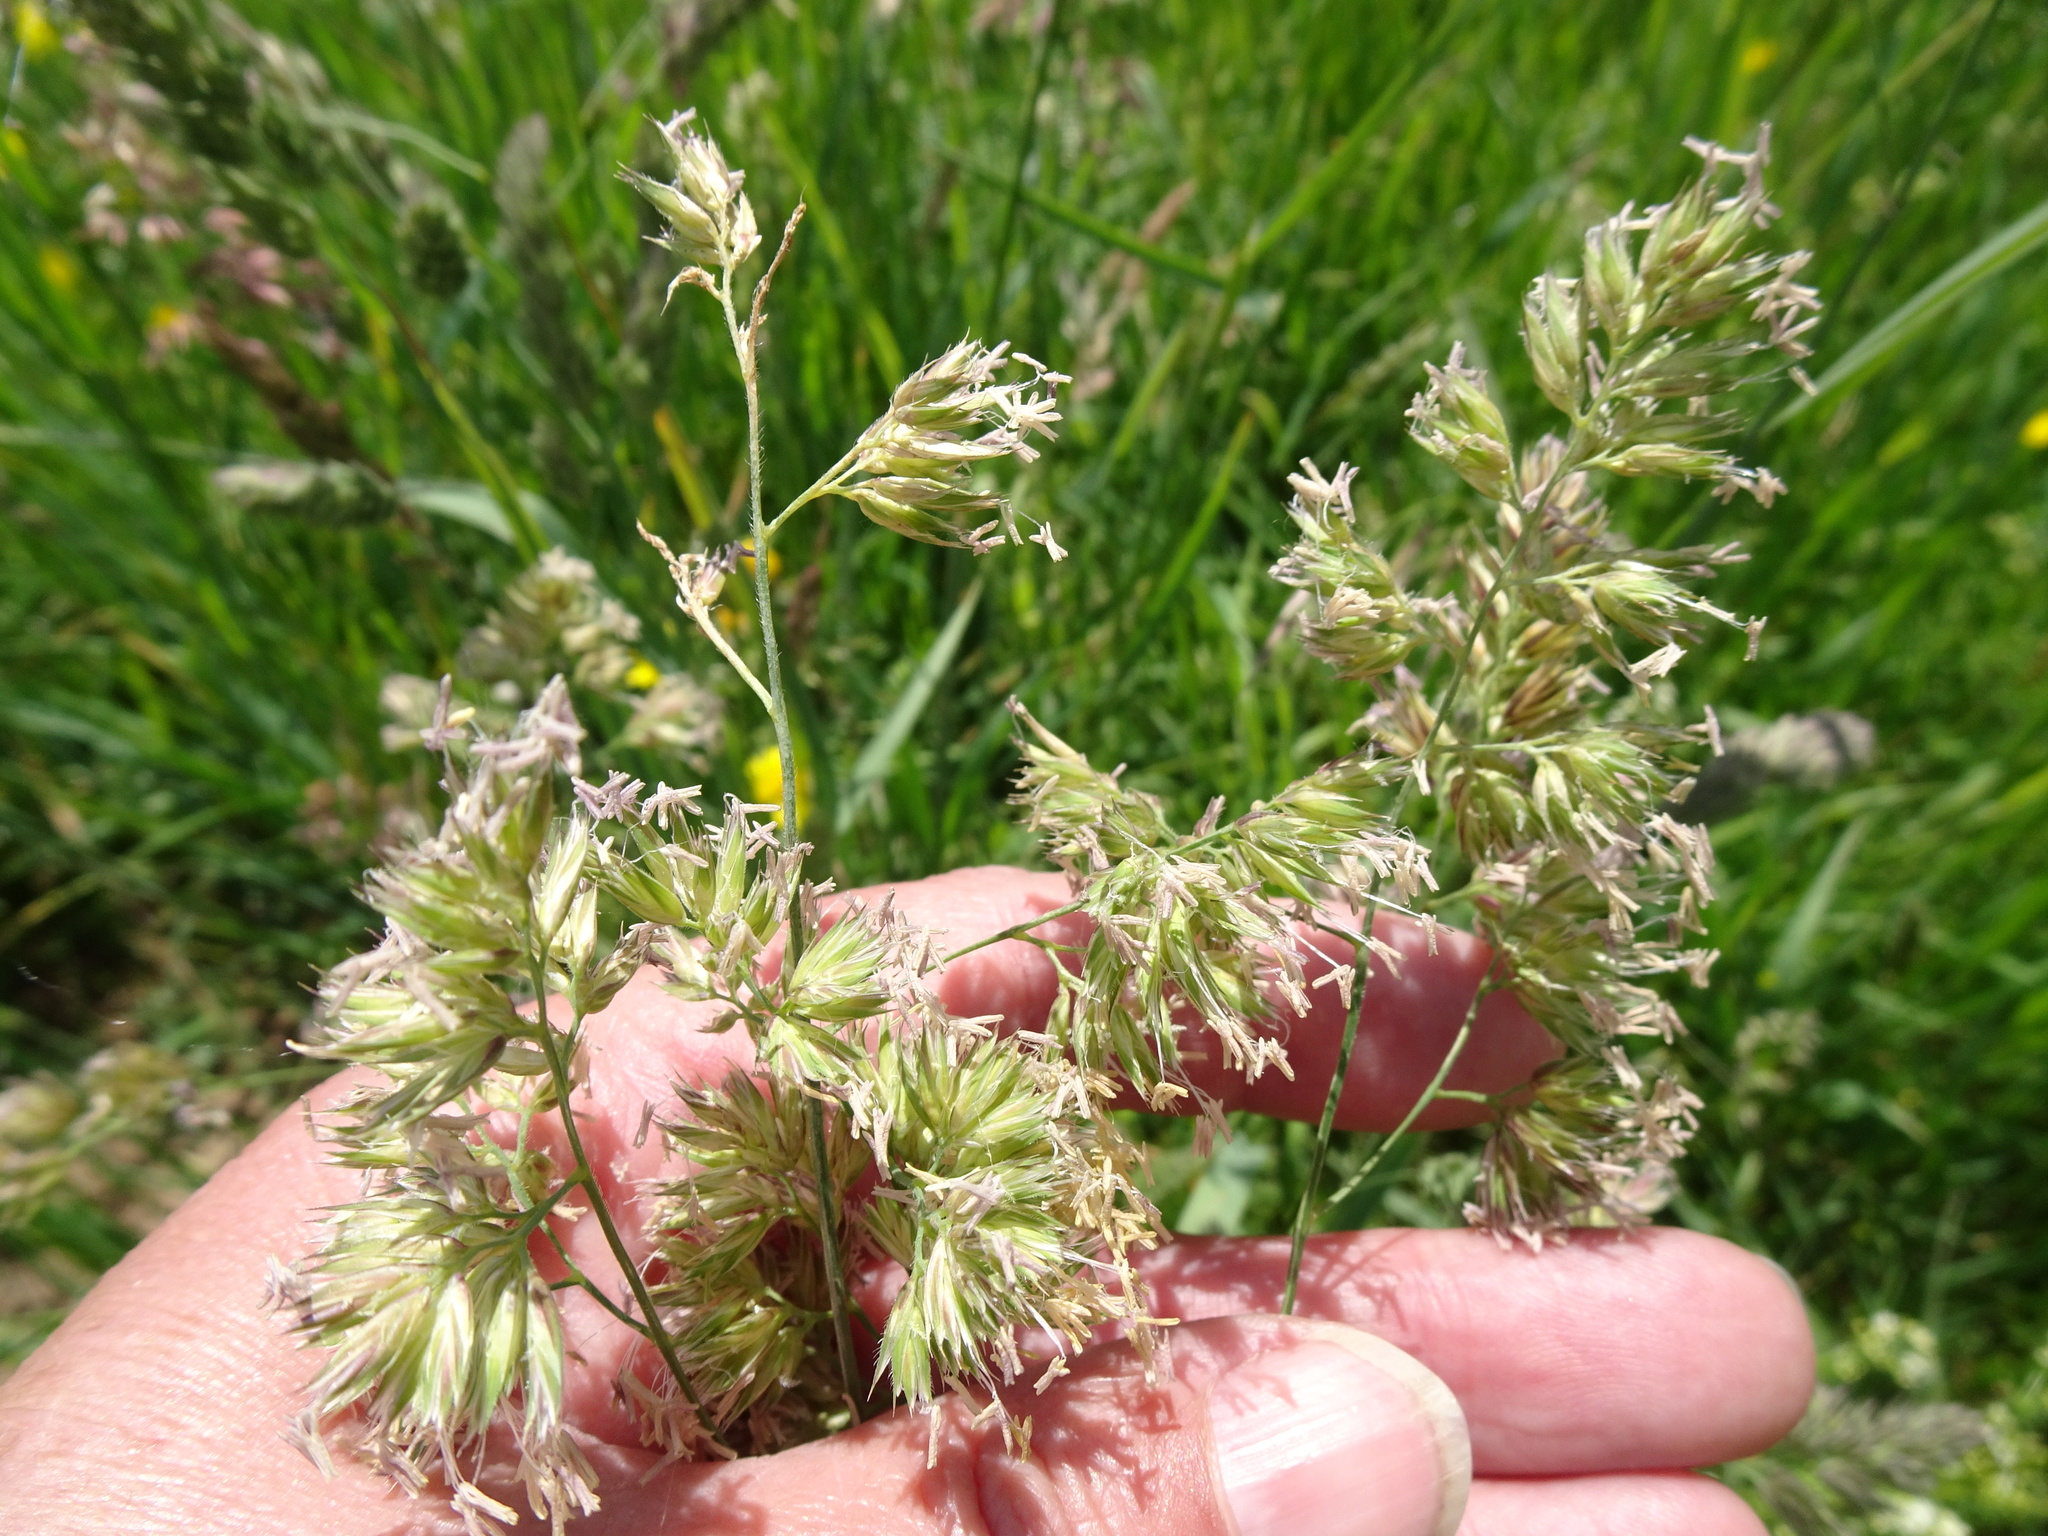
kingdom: Plantae
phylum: Tracheophyta
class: Liliopsida
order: Poales
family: Poaceae
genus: Dactylis
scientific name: Dactylis glomerata
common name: Orchardgrass
